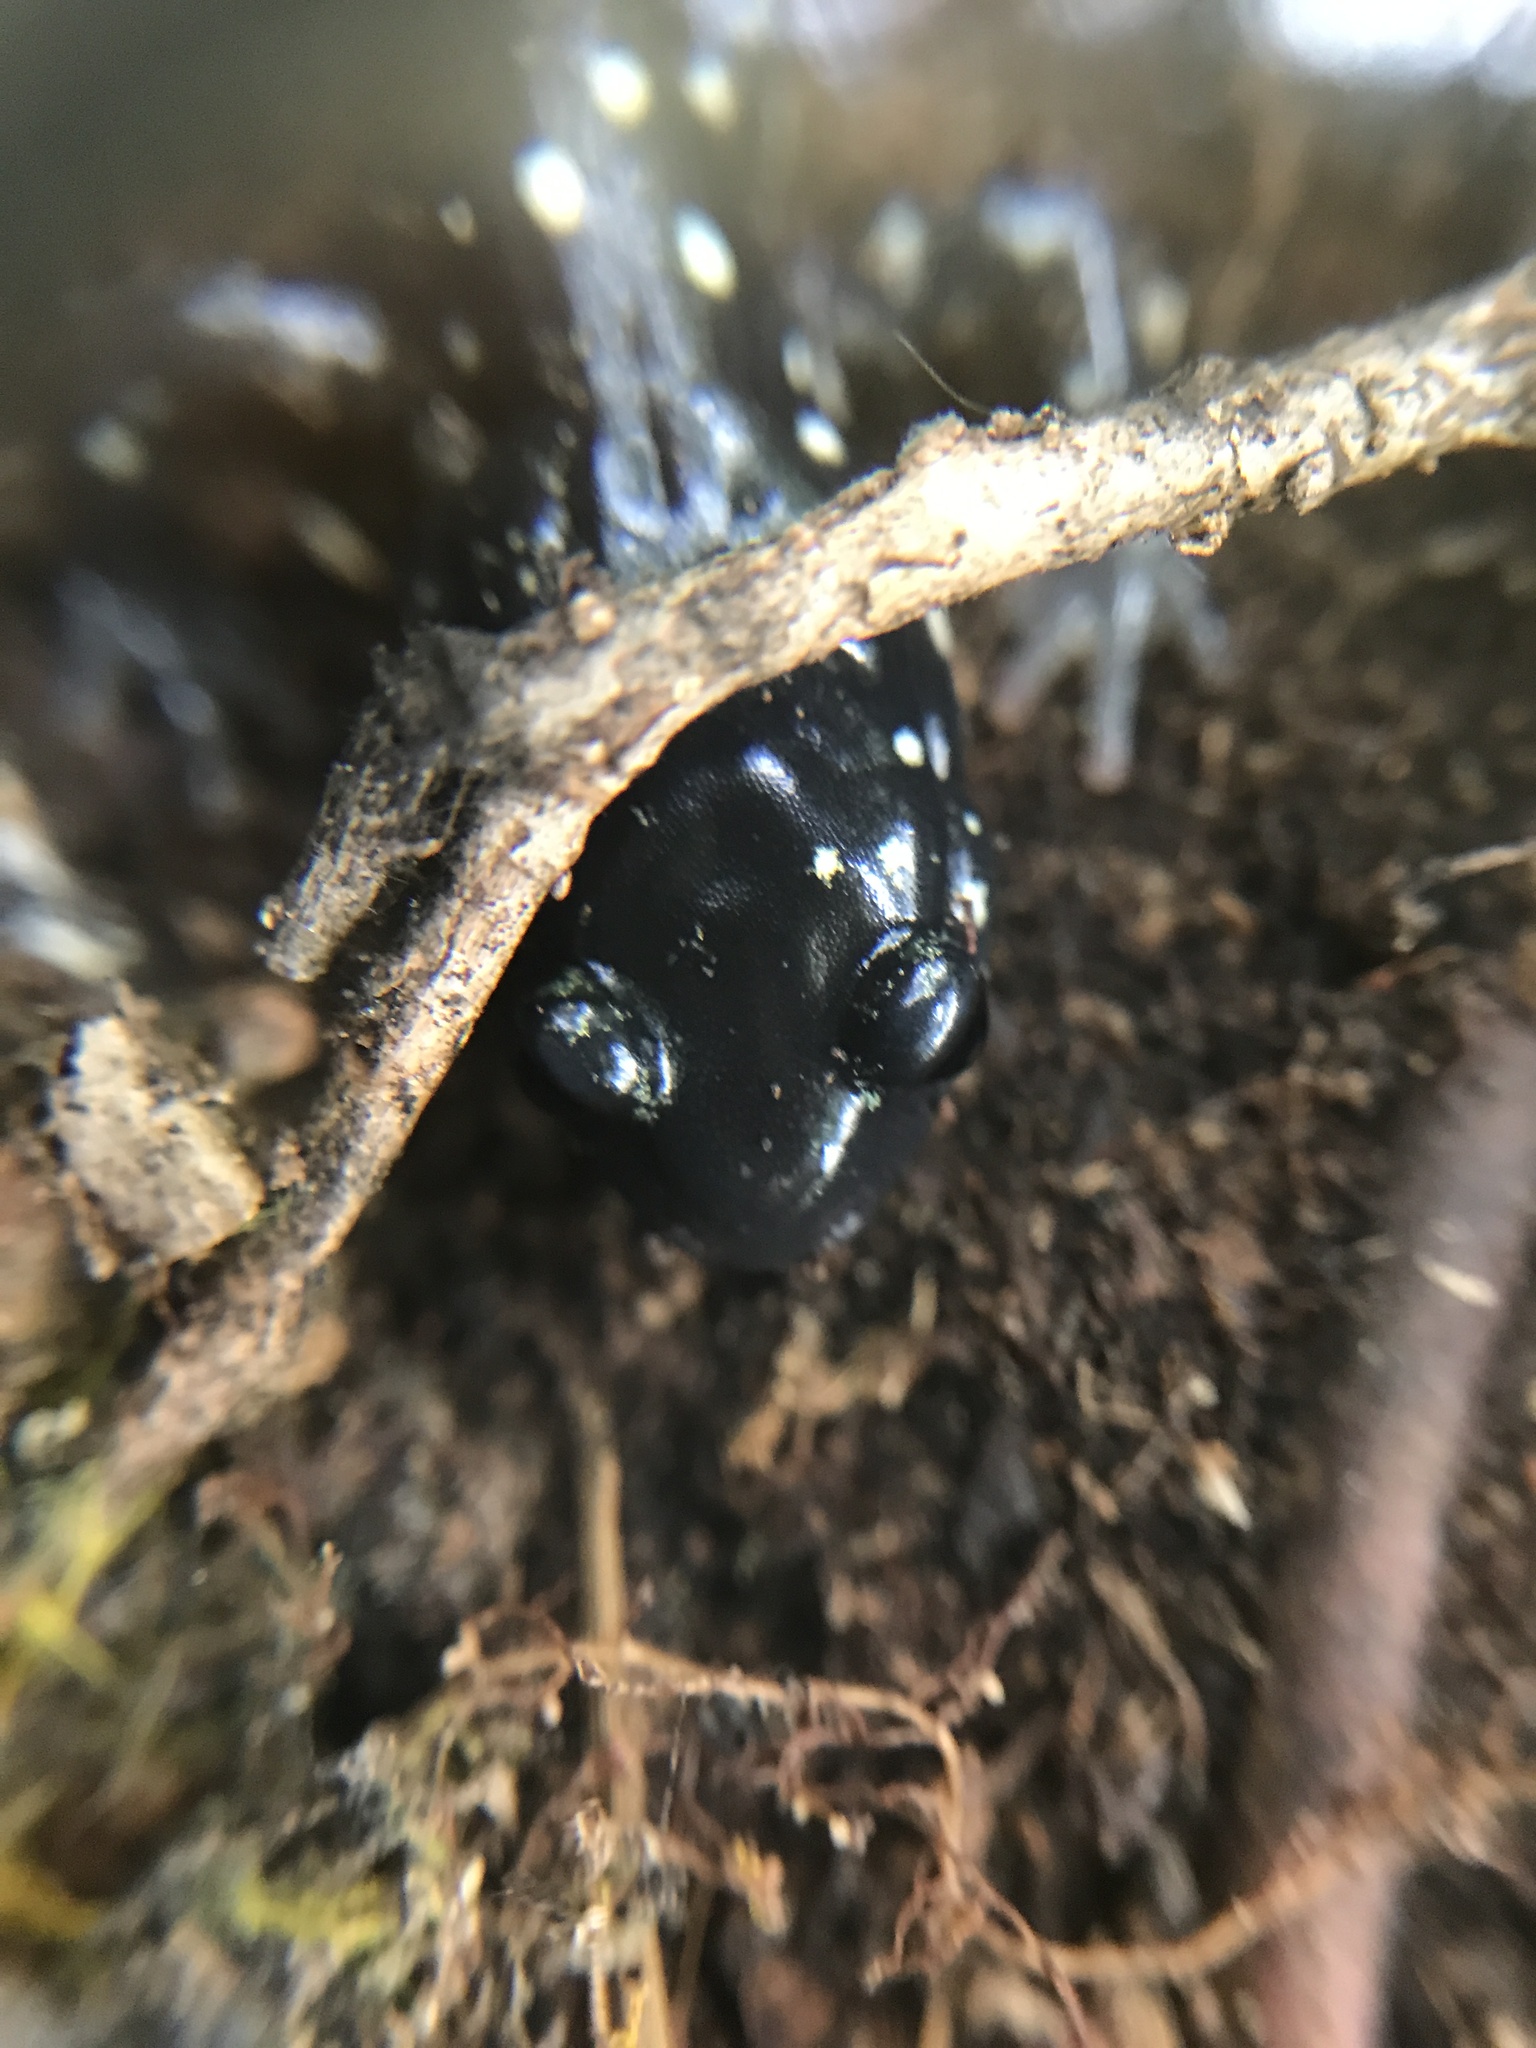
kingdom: Animalia
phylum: Chordata
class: Amphibia
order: Caudata
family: Plethodontidae
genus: Plethodon
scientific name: Plethodon glutinosus
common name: Northern slimy salamander
